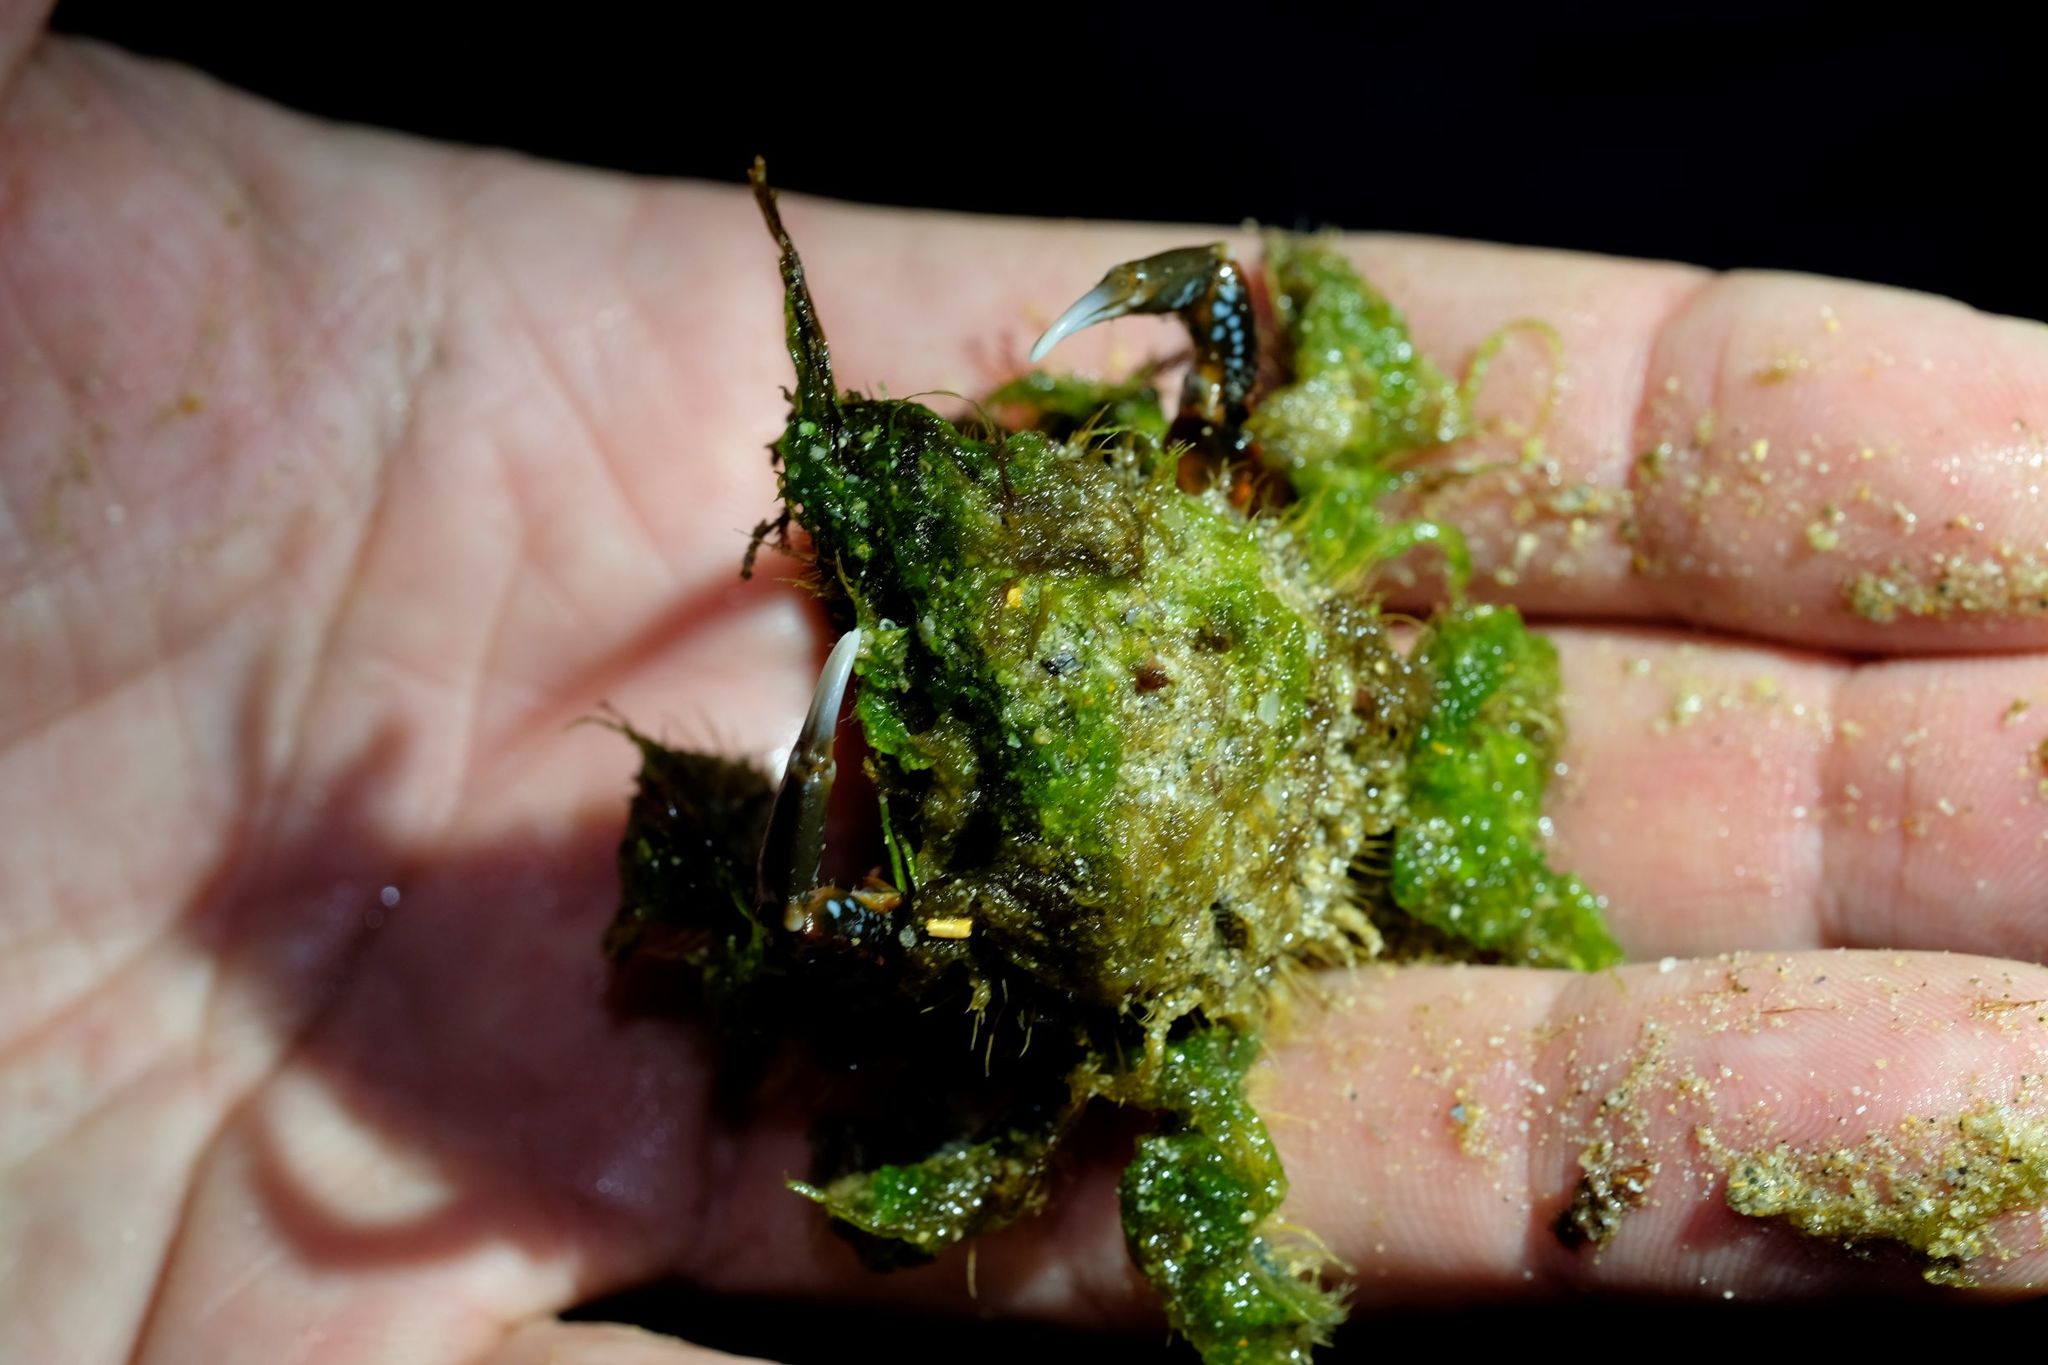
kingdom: Animalia
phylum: Arthropoda
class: Malacostraca
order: Decapoda
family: Majidae
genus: Notomithrax
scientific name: Notomithrax ursus
